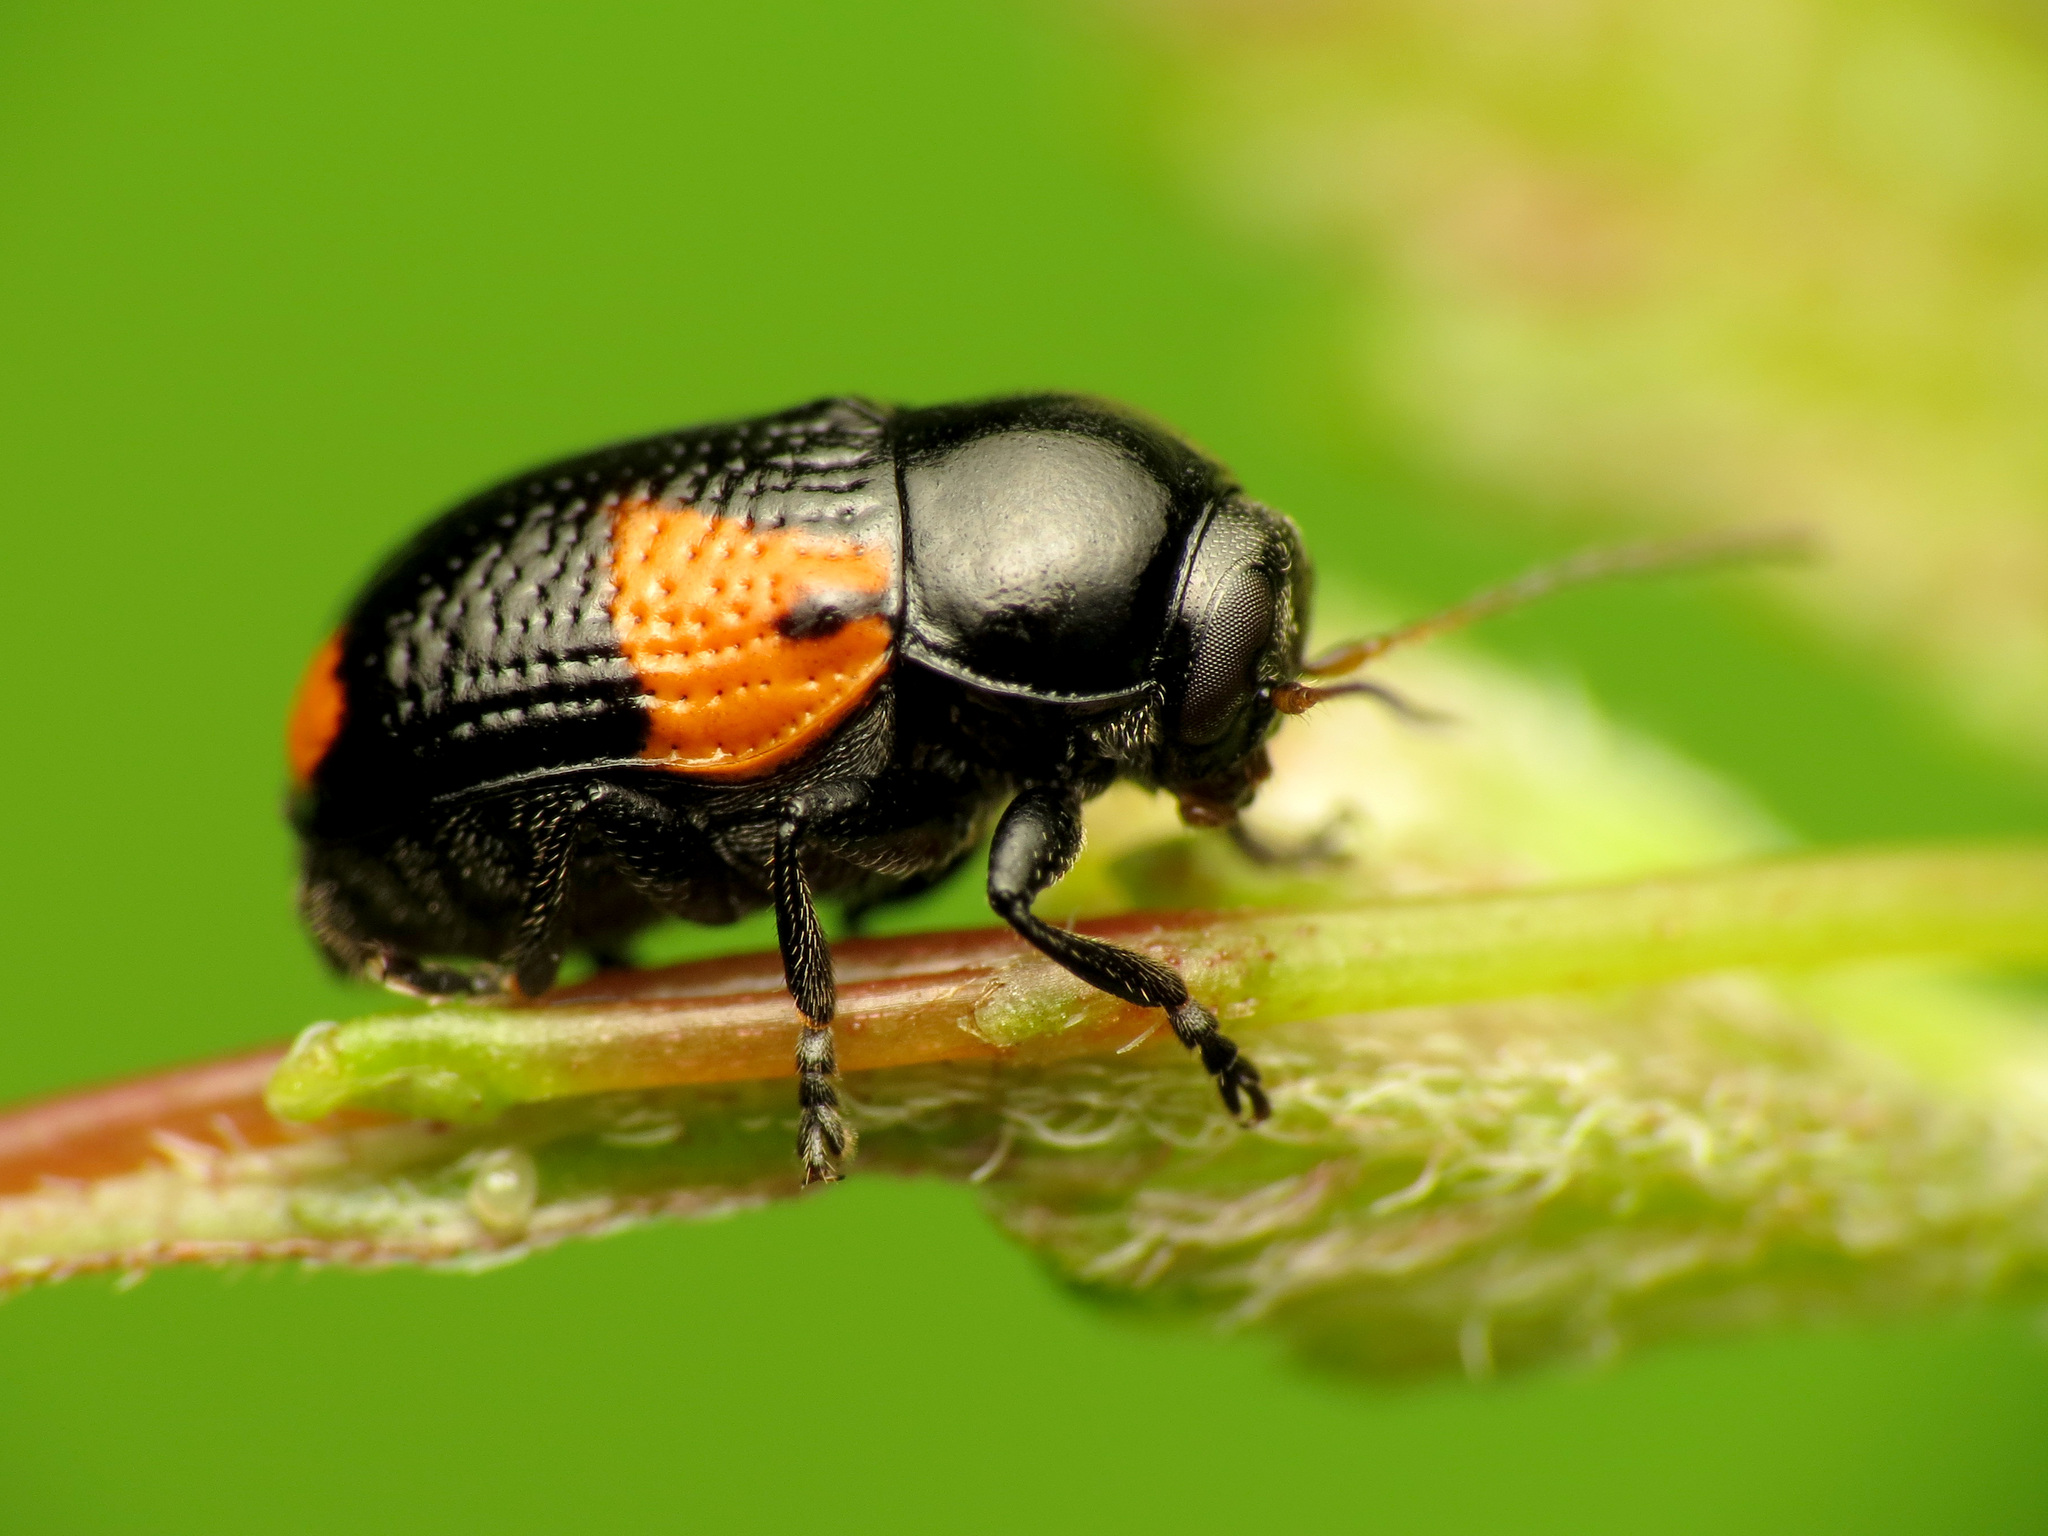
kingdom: Animalia
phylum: Arthropoda
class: Insecta
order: Coleoptera
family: Chrysomelidae
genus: Cryptocephalus
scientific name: Cryptocephalus quadruplex
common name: Black and red sumac leaf beetle
